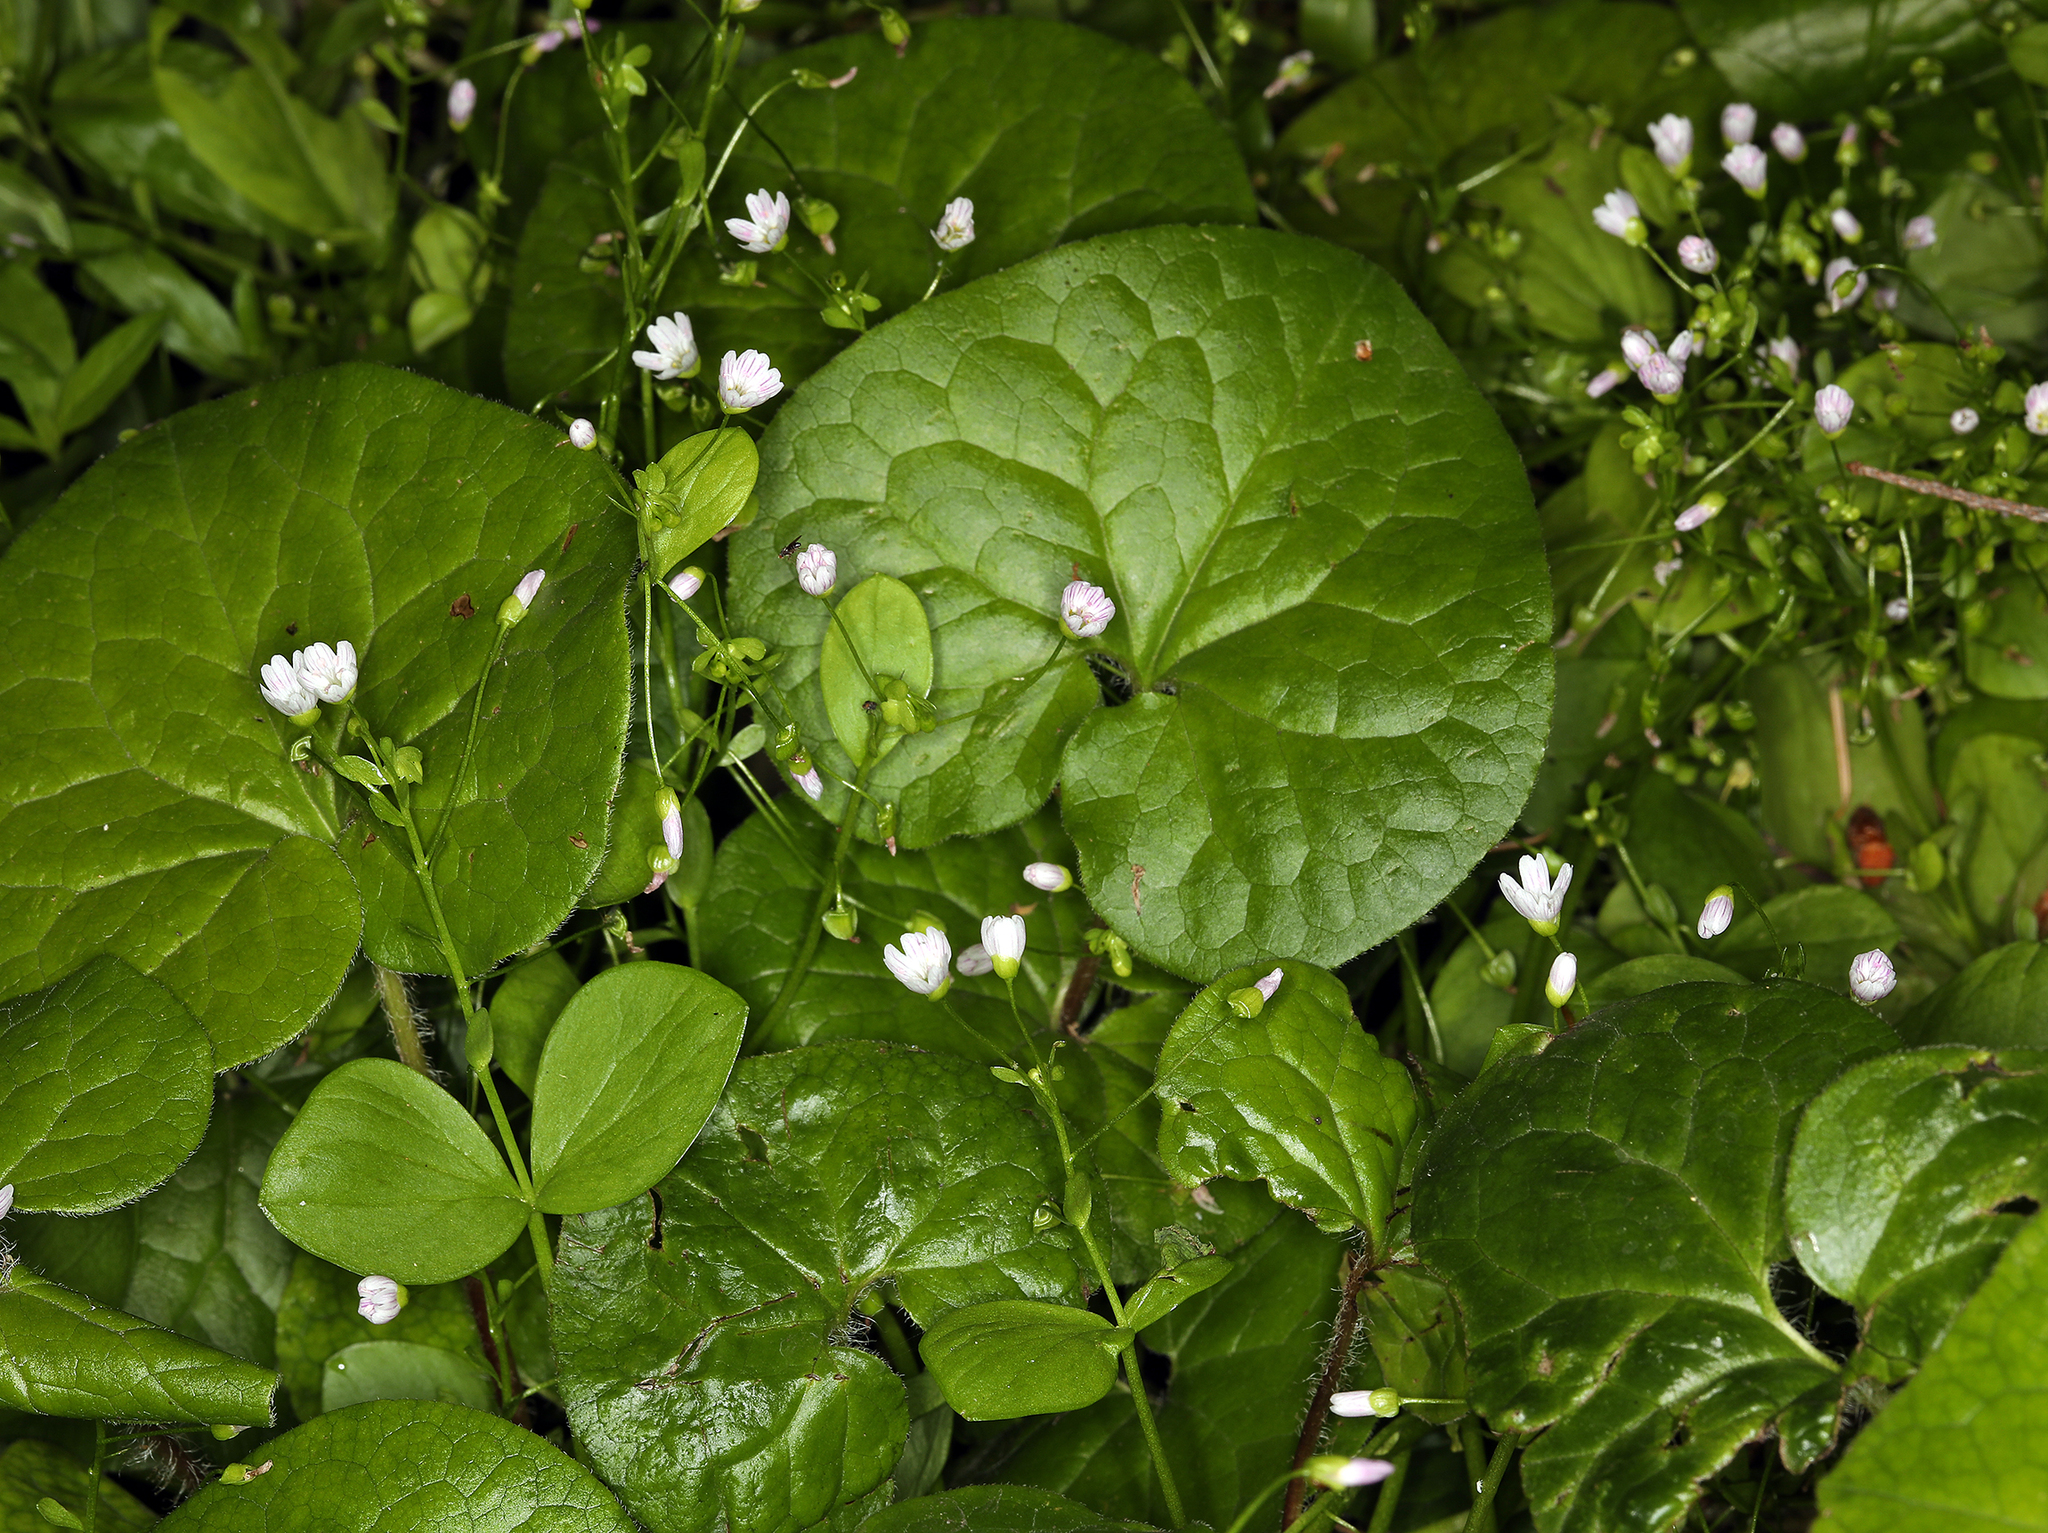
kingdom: Plantae
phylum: Tracheophyta
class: Magnoliopsida
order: Caryophyllales
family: Montiaceae
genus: Claytonia
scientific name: Claytonia sibirica
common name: Pink purslane
